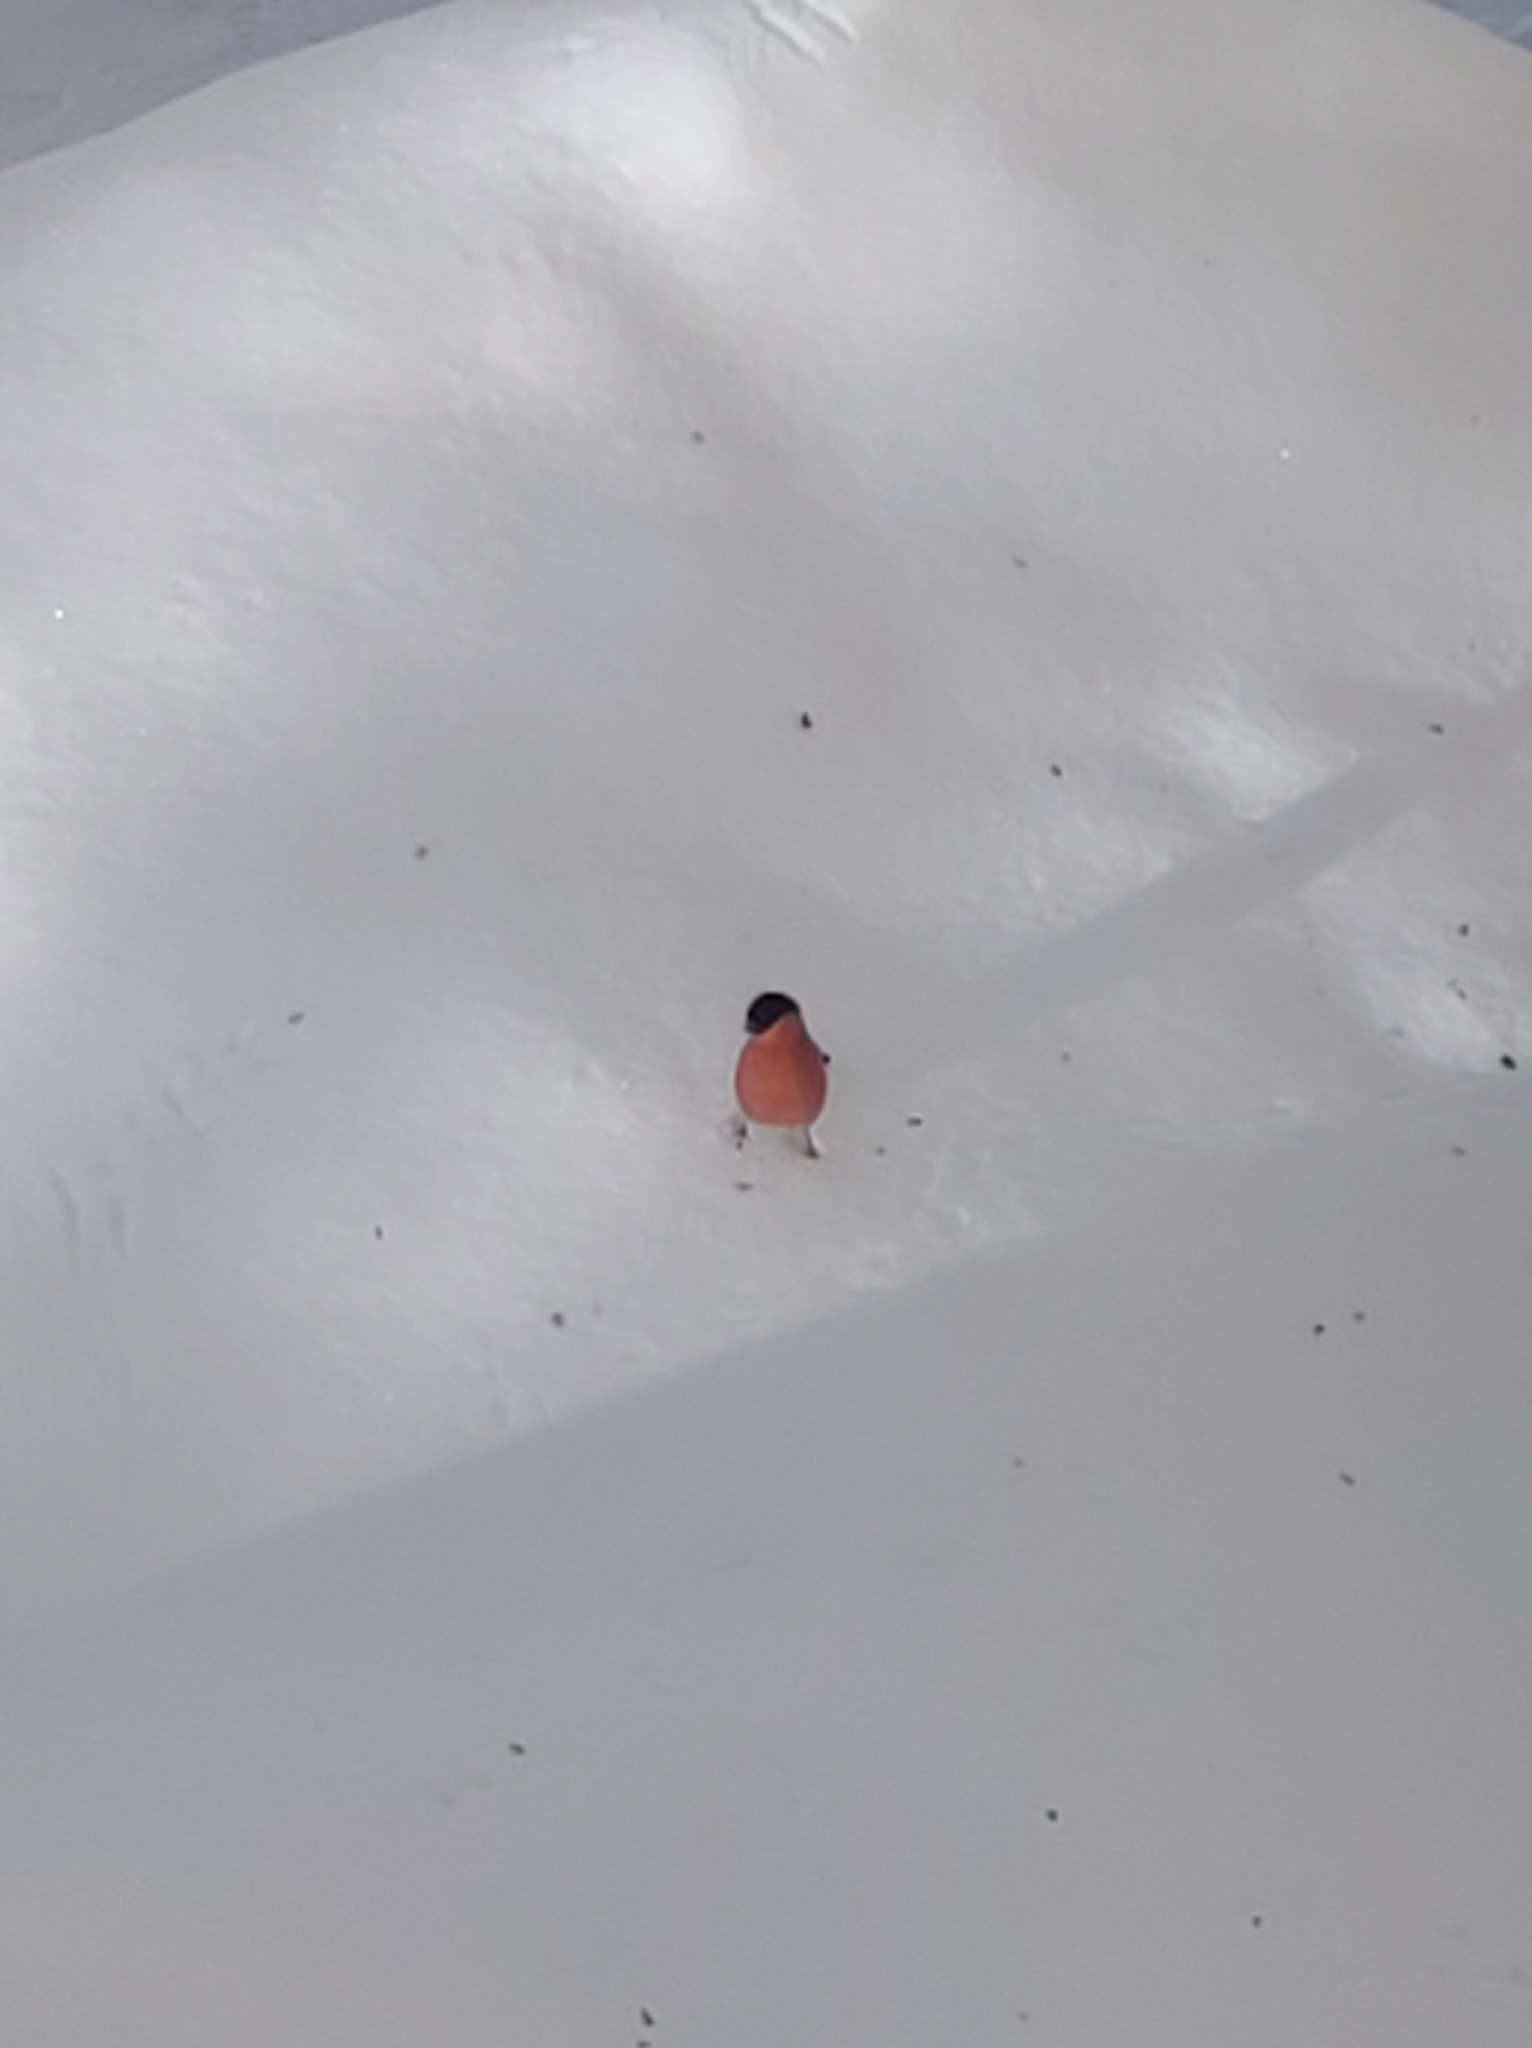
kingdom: Animalia
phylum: Chordata
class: Aves
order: Passeriformes
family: Fringillidae
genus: Pyrrhula
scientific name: Pyrrhula pyrrhula
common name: Eurasian bullfinch
